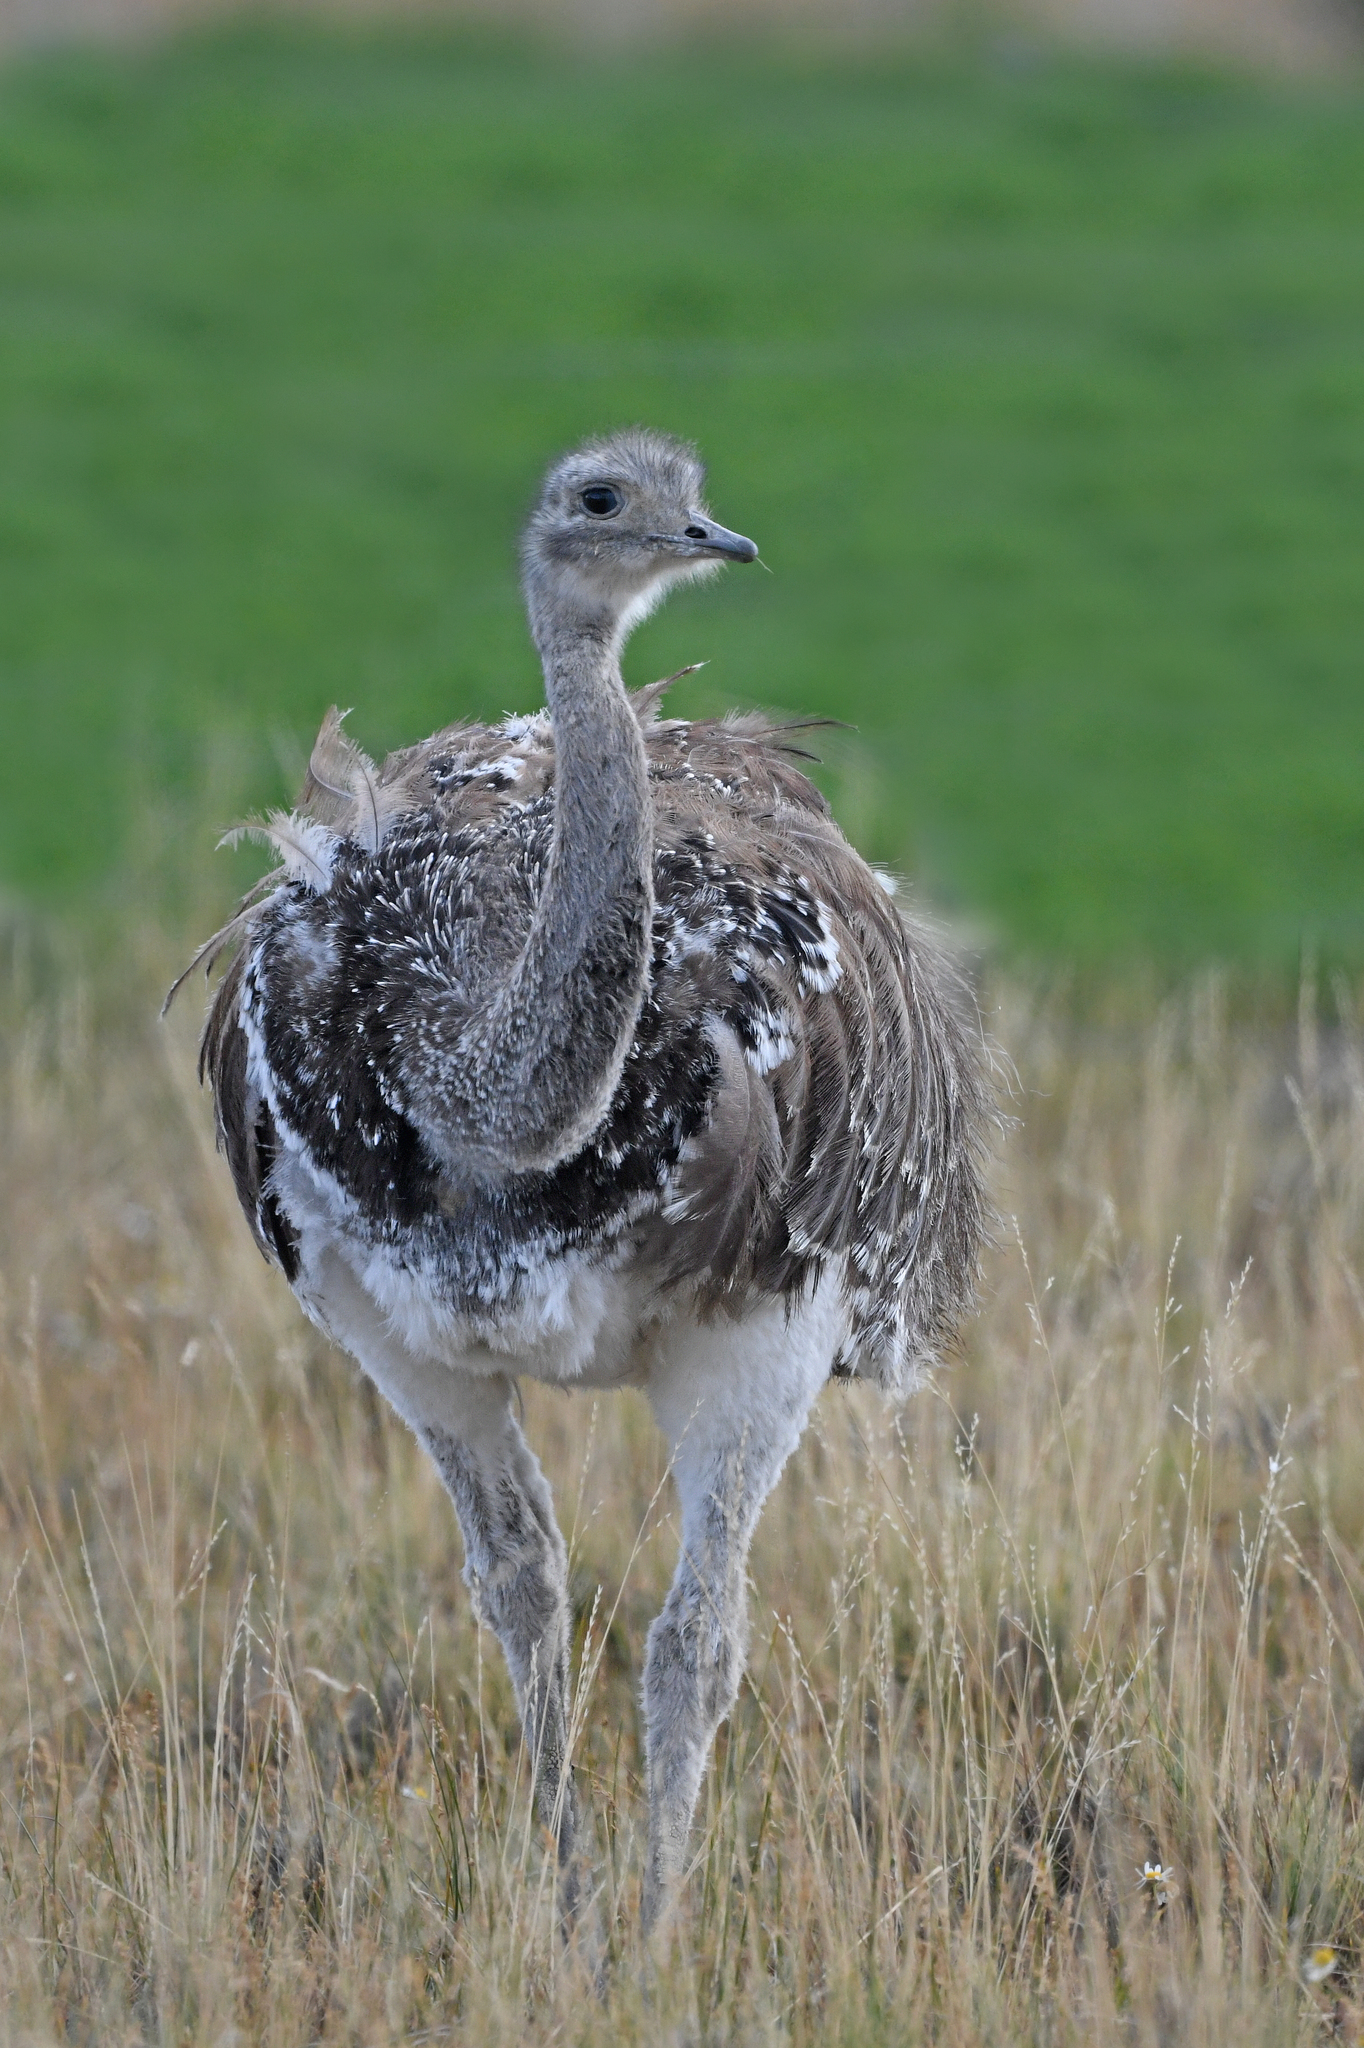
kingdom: Animalia
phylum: Chordata
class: Aves
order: Rheiformes
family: Rheidae
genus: Rhea
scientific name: Rhea pennata
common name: Lesser rhea
